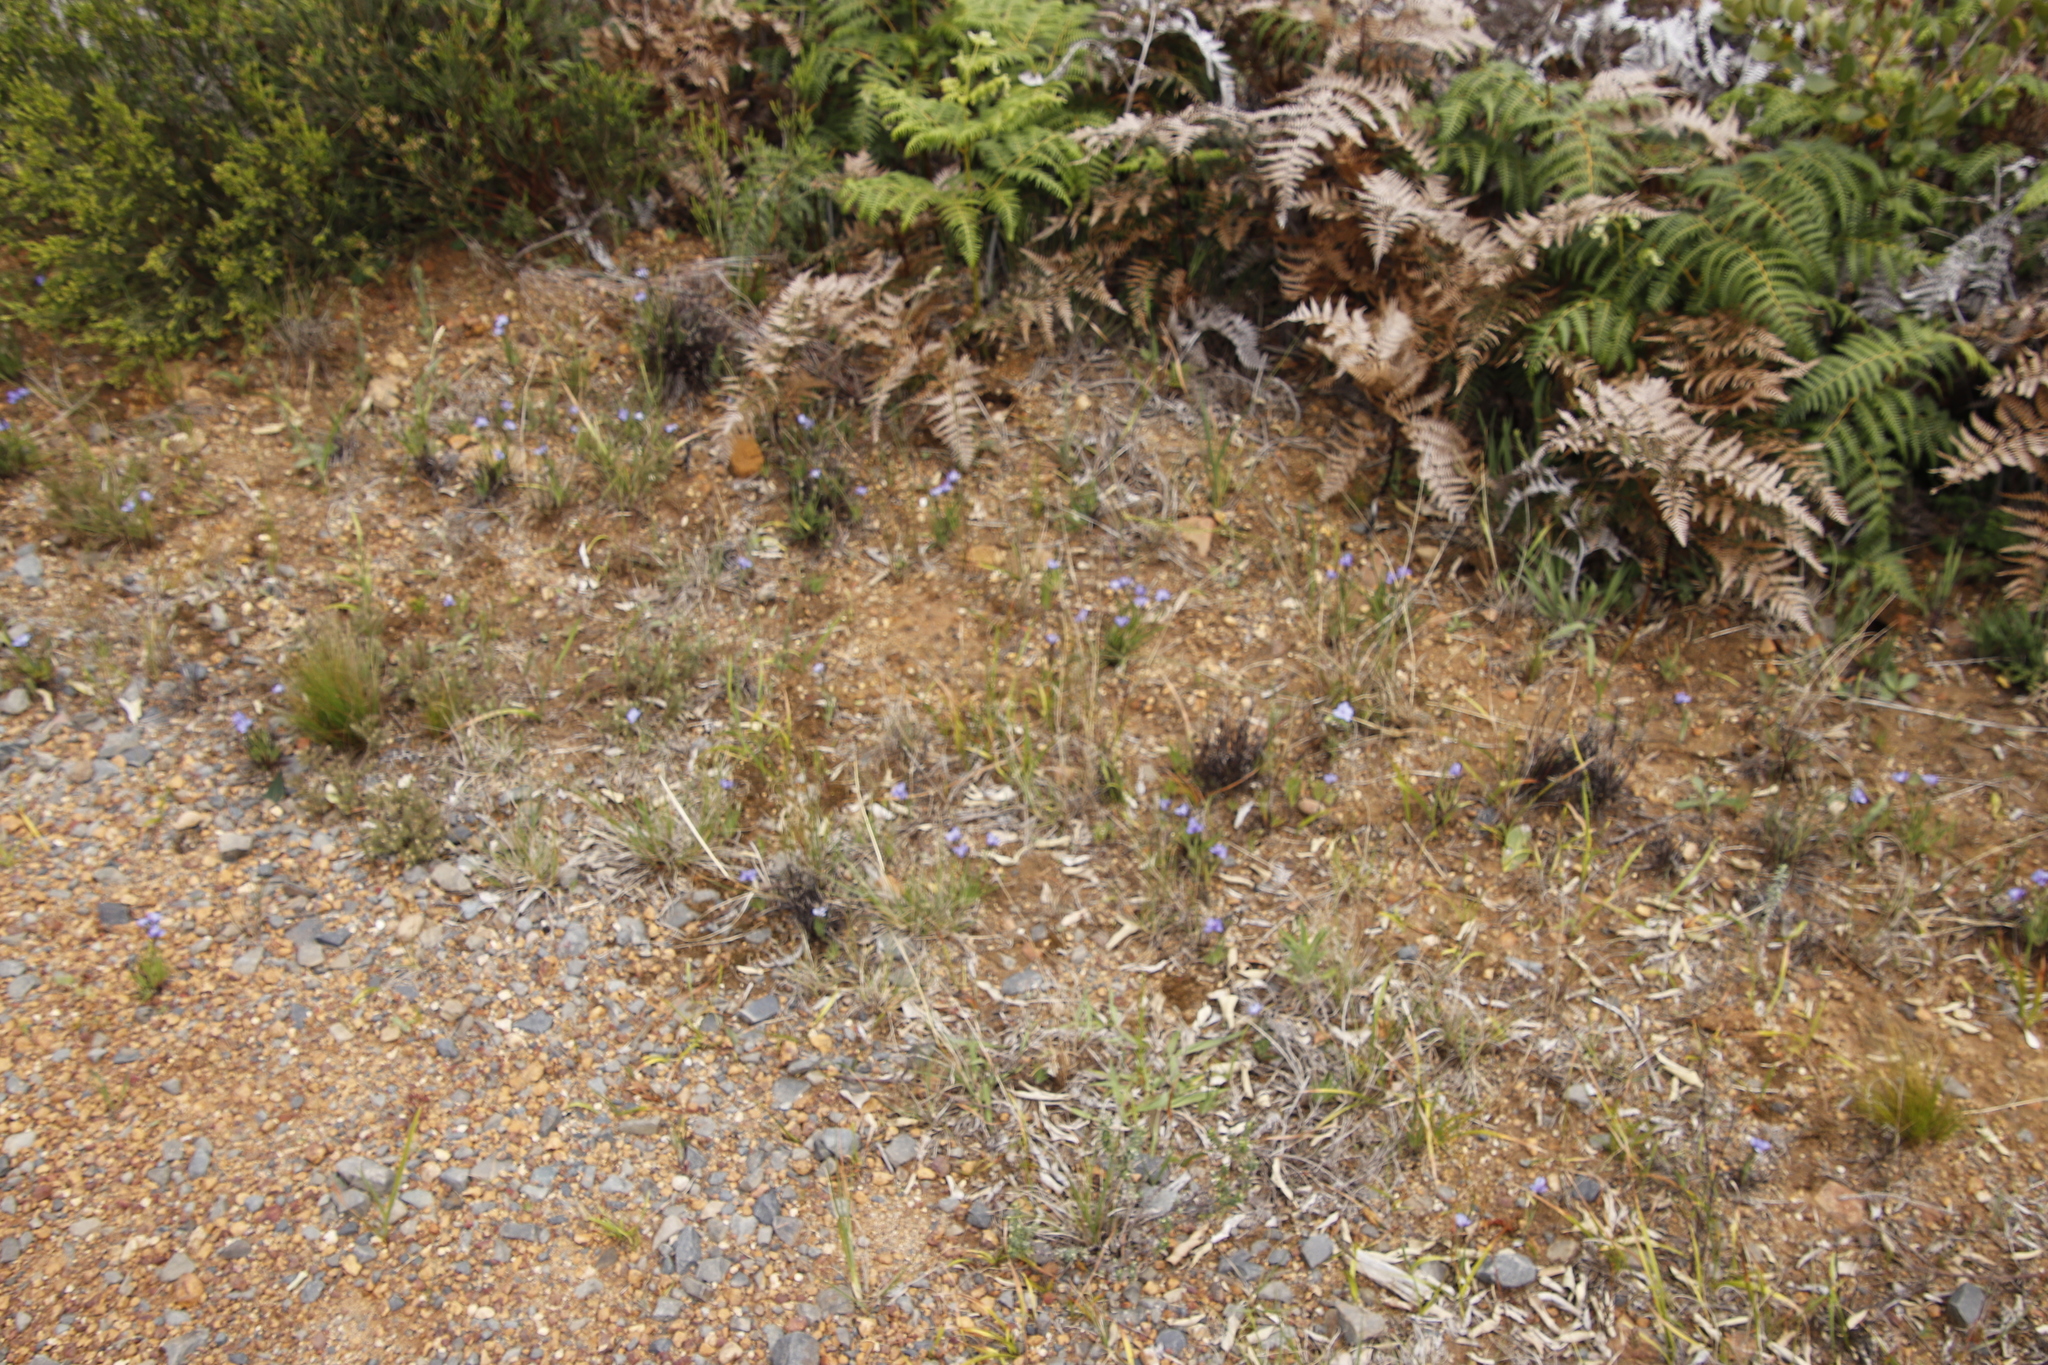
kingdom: Plantae
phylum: Tracheophyta
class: Liliopsida
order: Asparagales
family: Iridaceae
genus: Aristea
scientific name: Aristea africana
